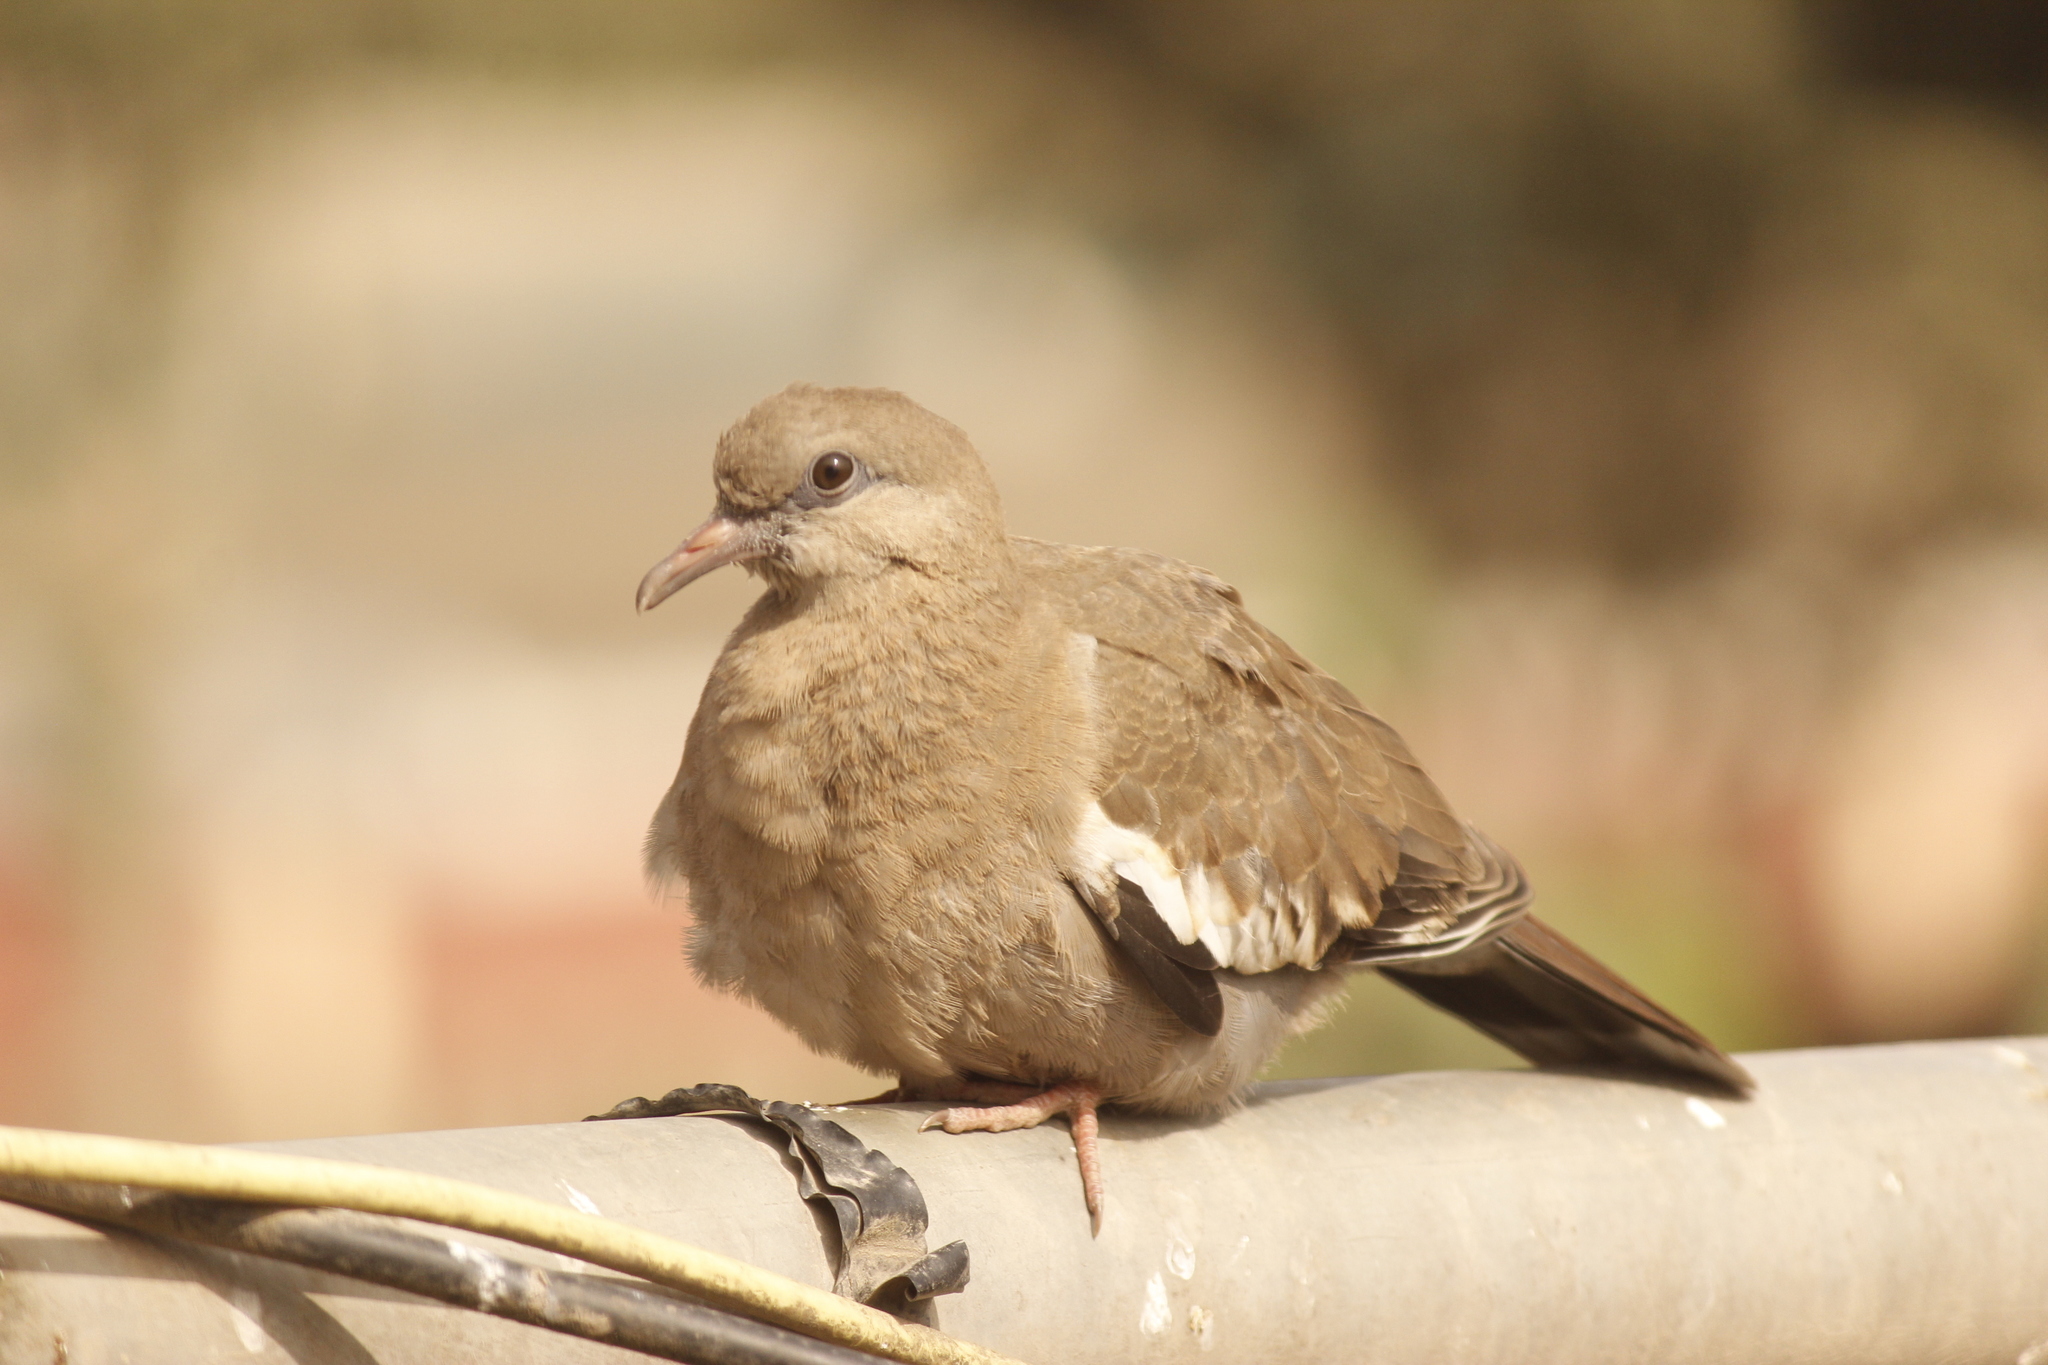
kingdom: Animalia
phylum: Chordata
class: Aves
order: Columbiformes
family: Columbidae
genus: Zenaida
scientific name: Zenaida meloda
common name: West peruvian dove
